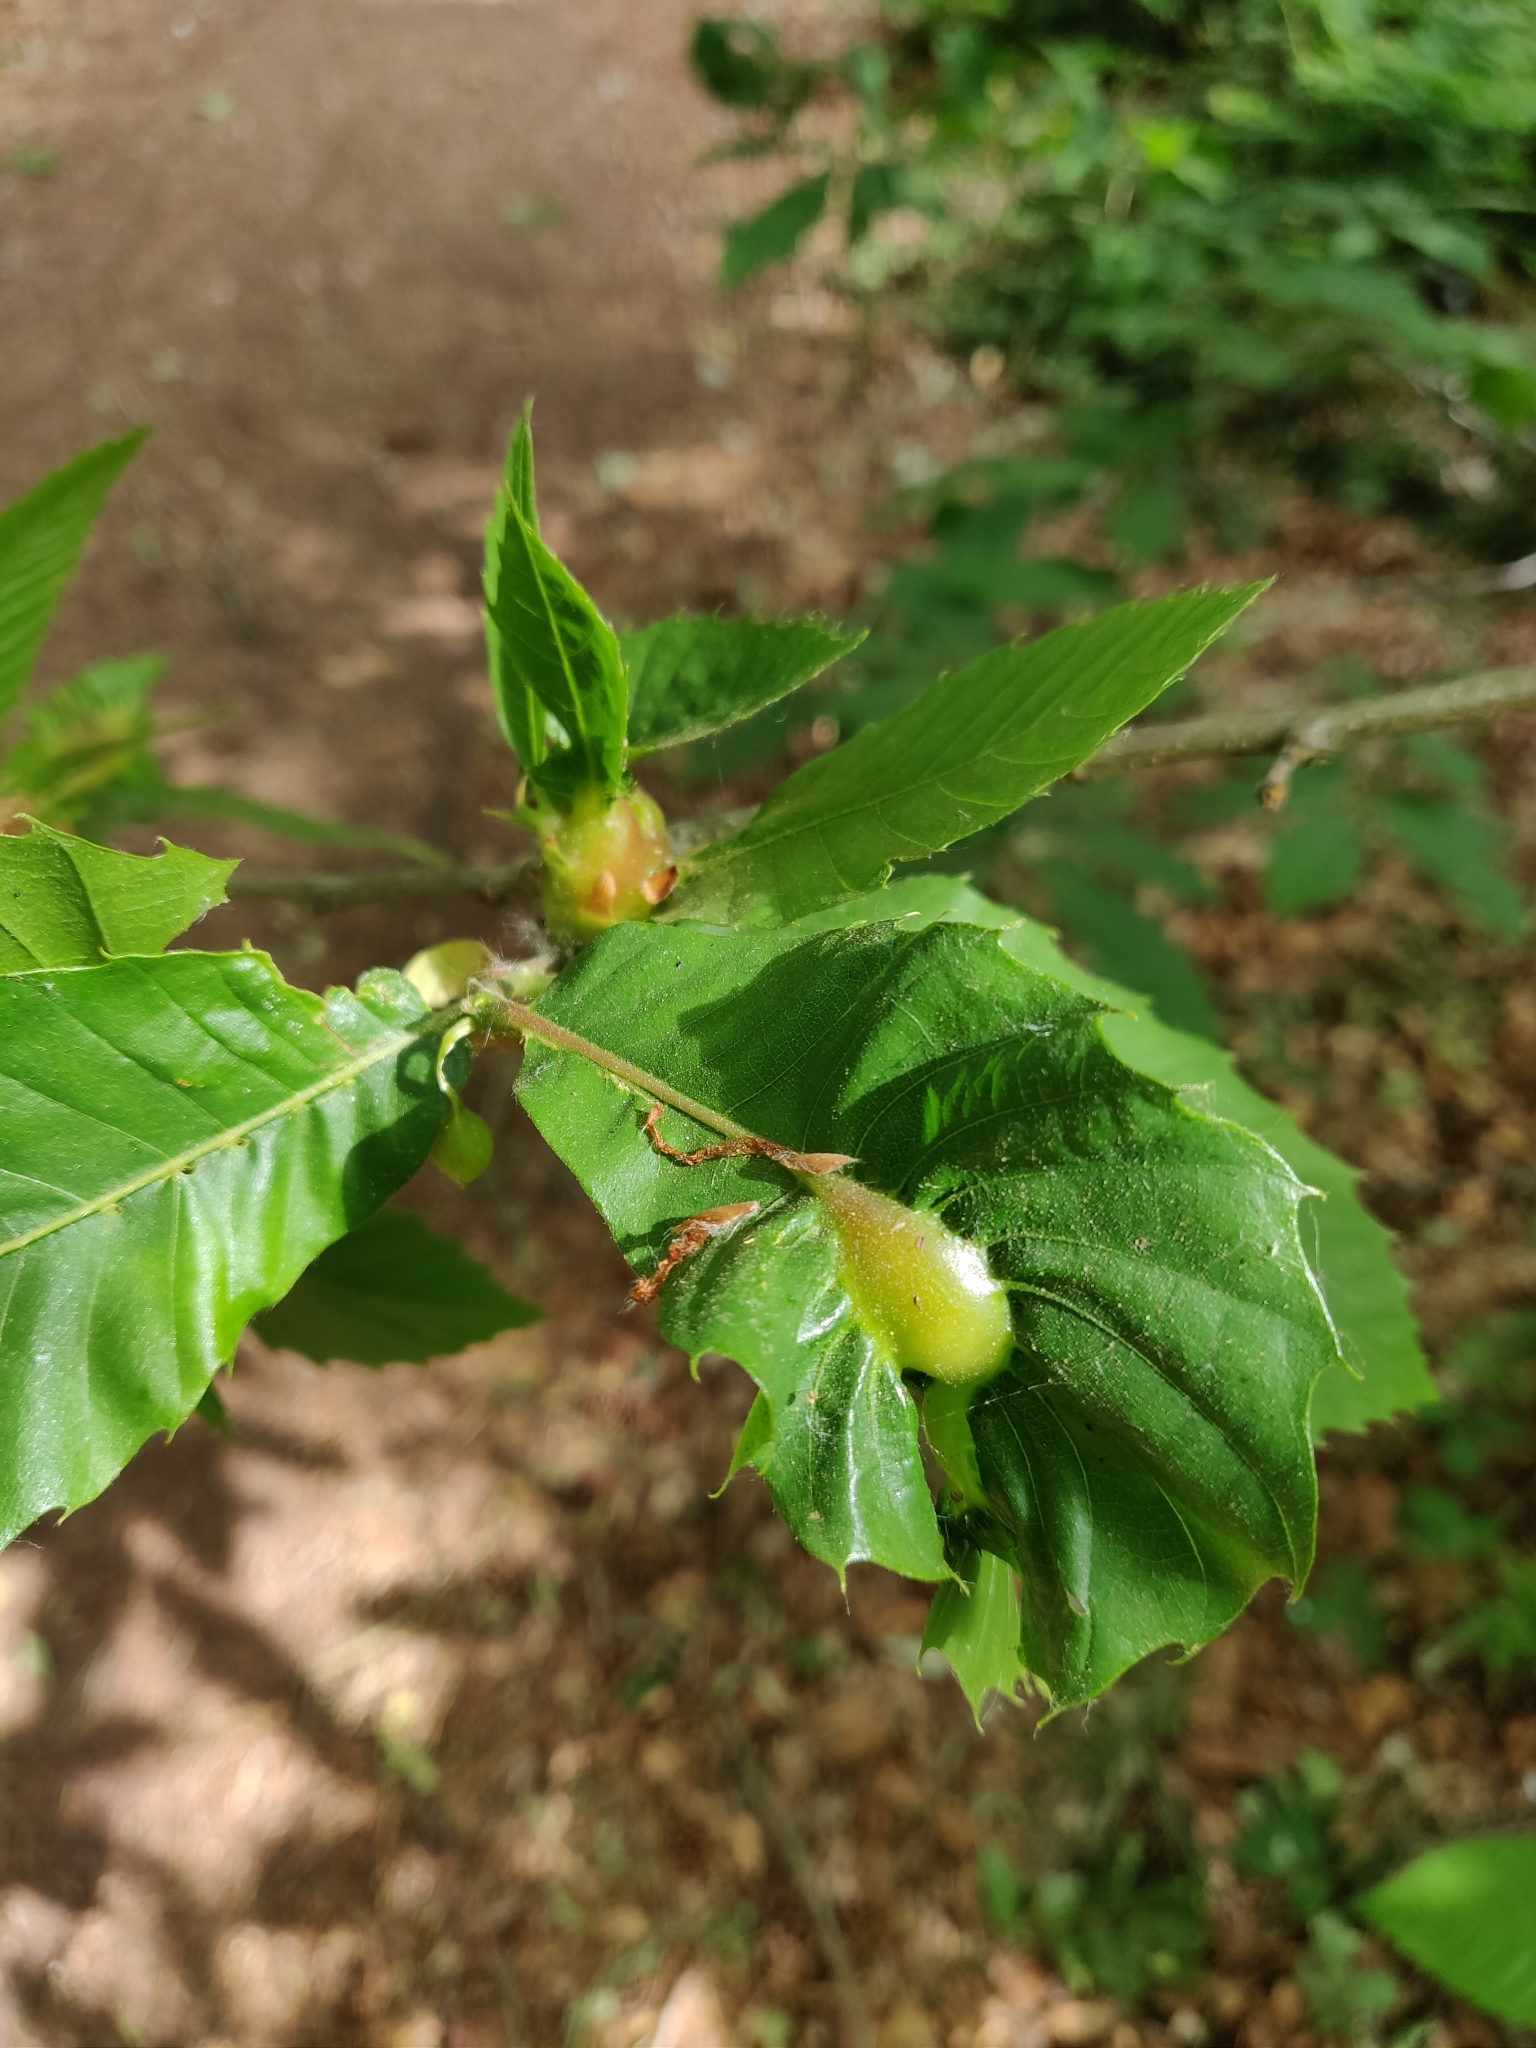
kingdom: Animalia
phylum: Arthropoda
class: Insecta
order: Hymenoptera
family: Cynipidae
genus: Dryocosmus
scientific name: Dryocosmus kuriphilus
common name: Asian chestnut gall wasp
